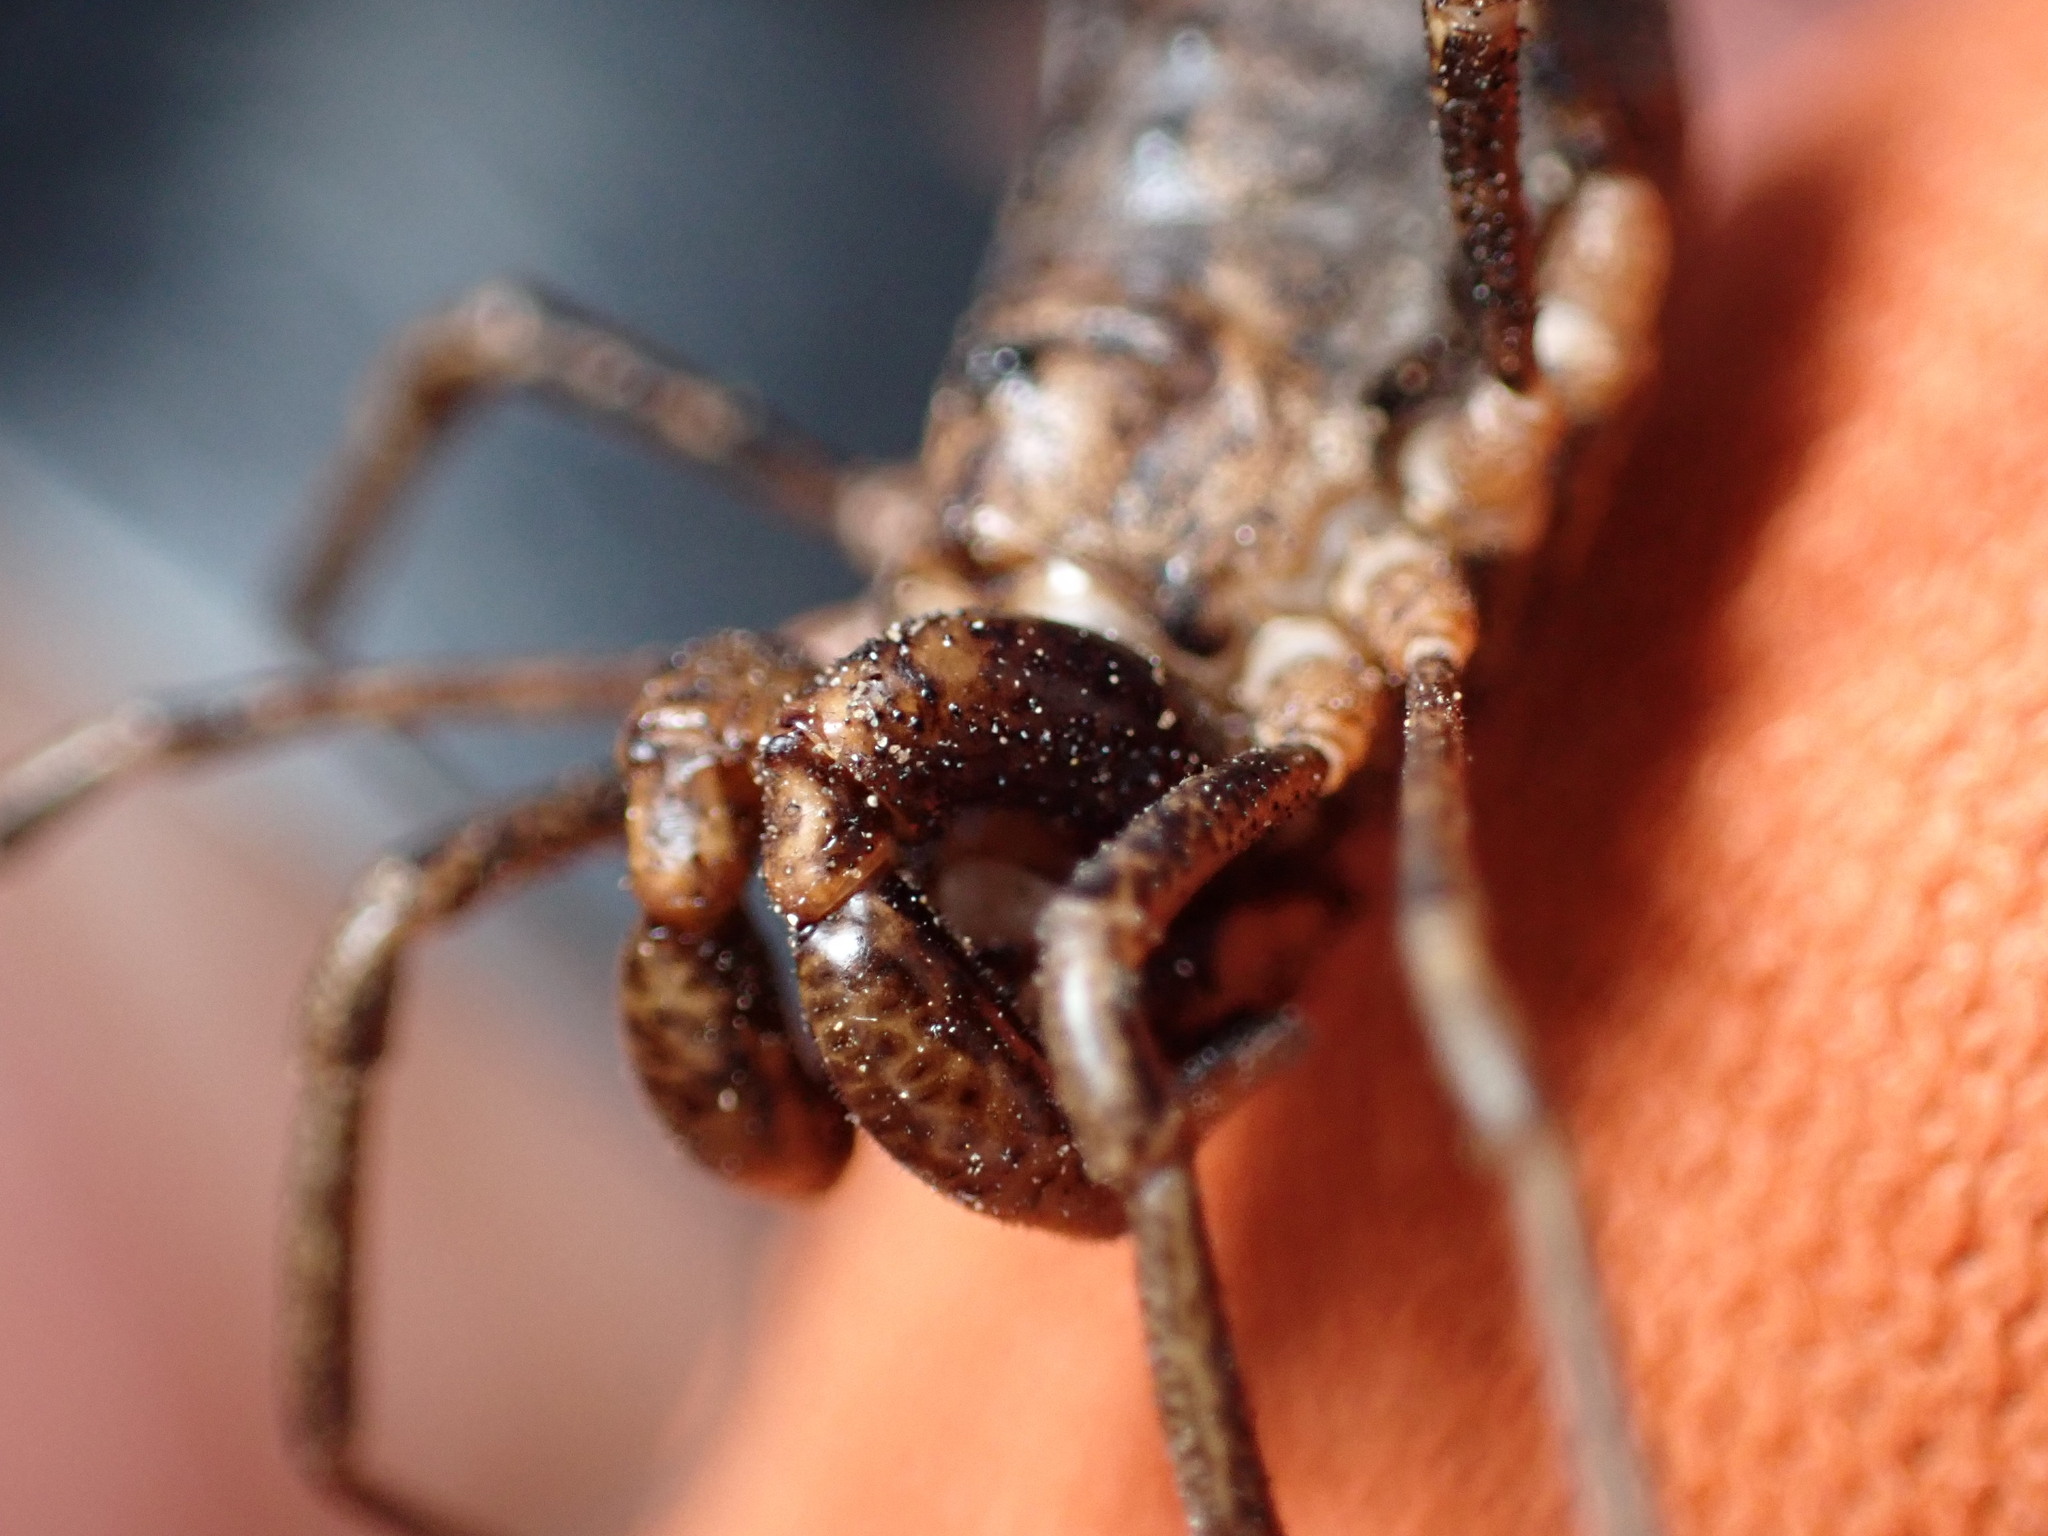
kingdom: Animalia
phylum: Arthropoda
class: Arachnida
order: Opiliones
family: Protolophidae
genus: Protolophus
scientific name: Protolophus singularis
